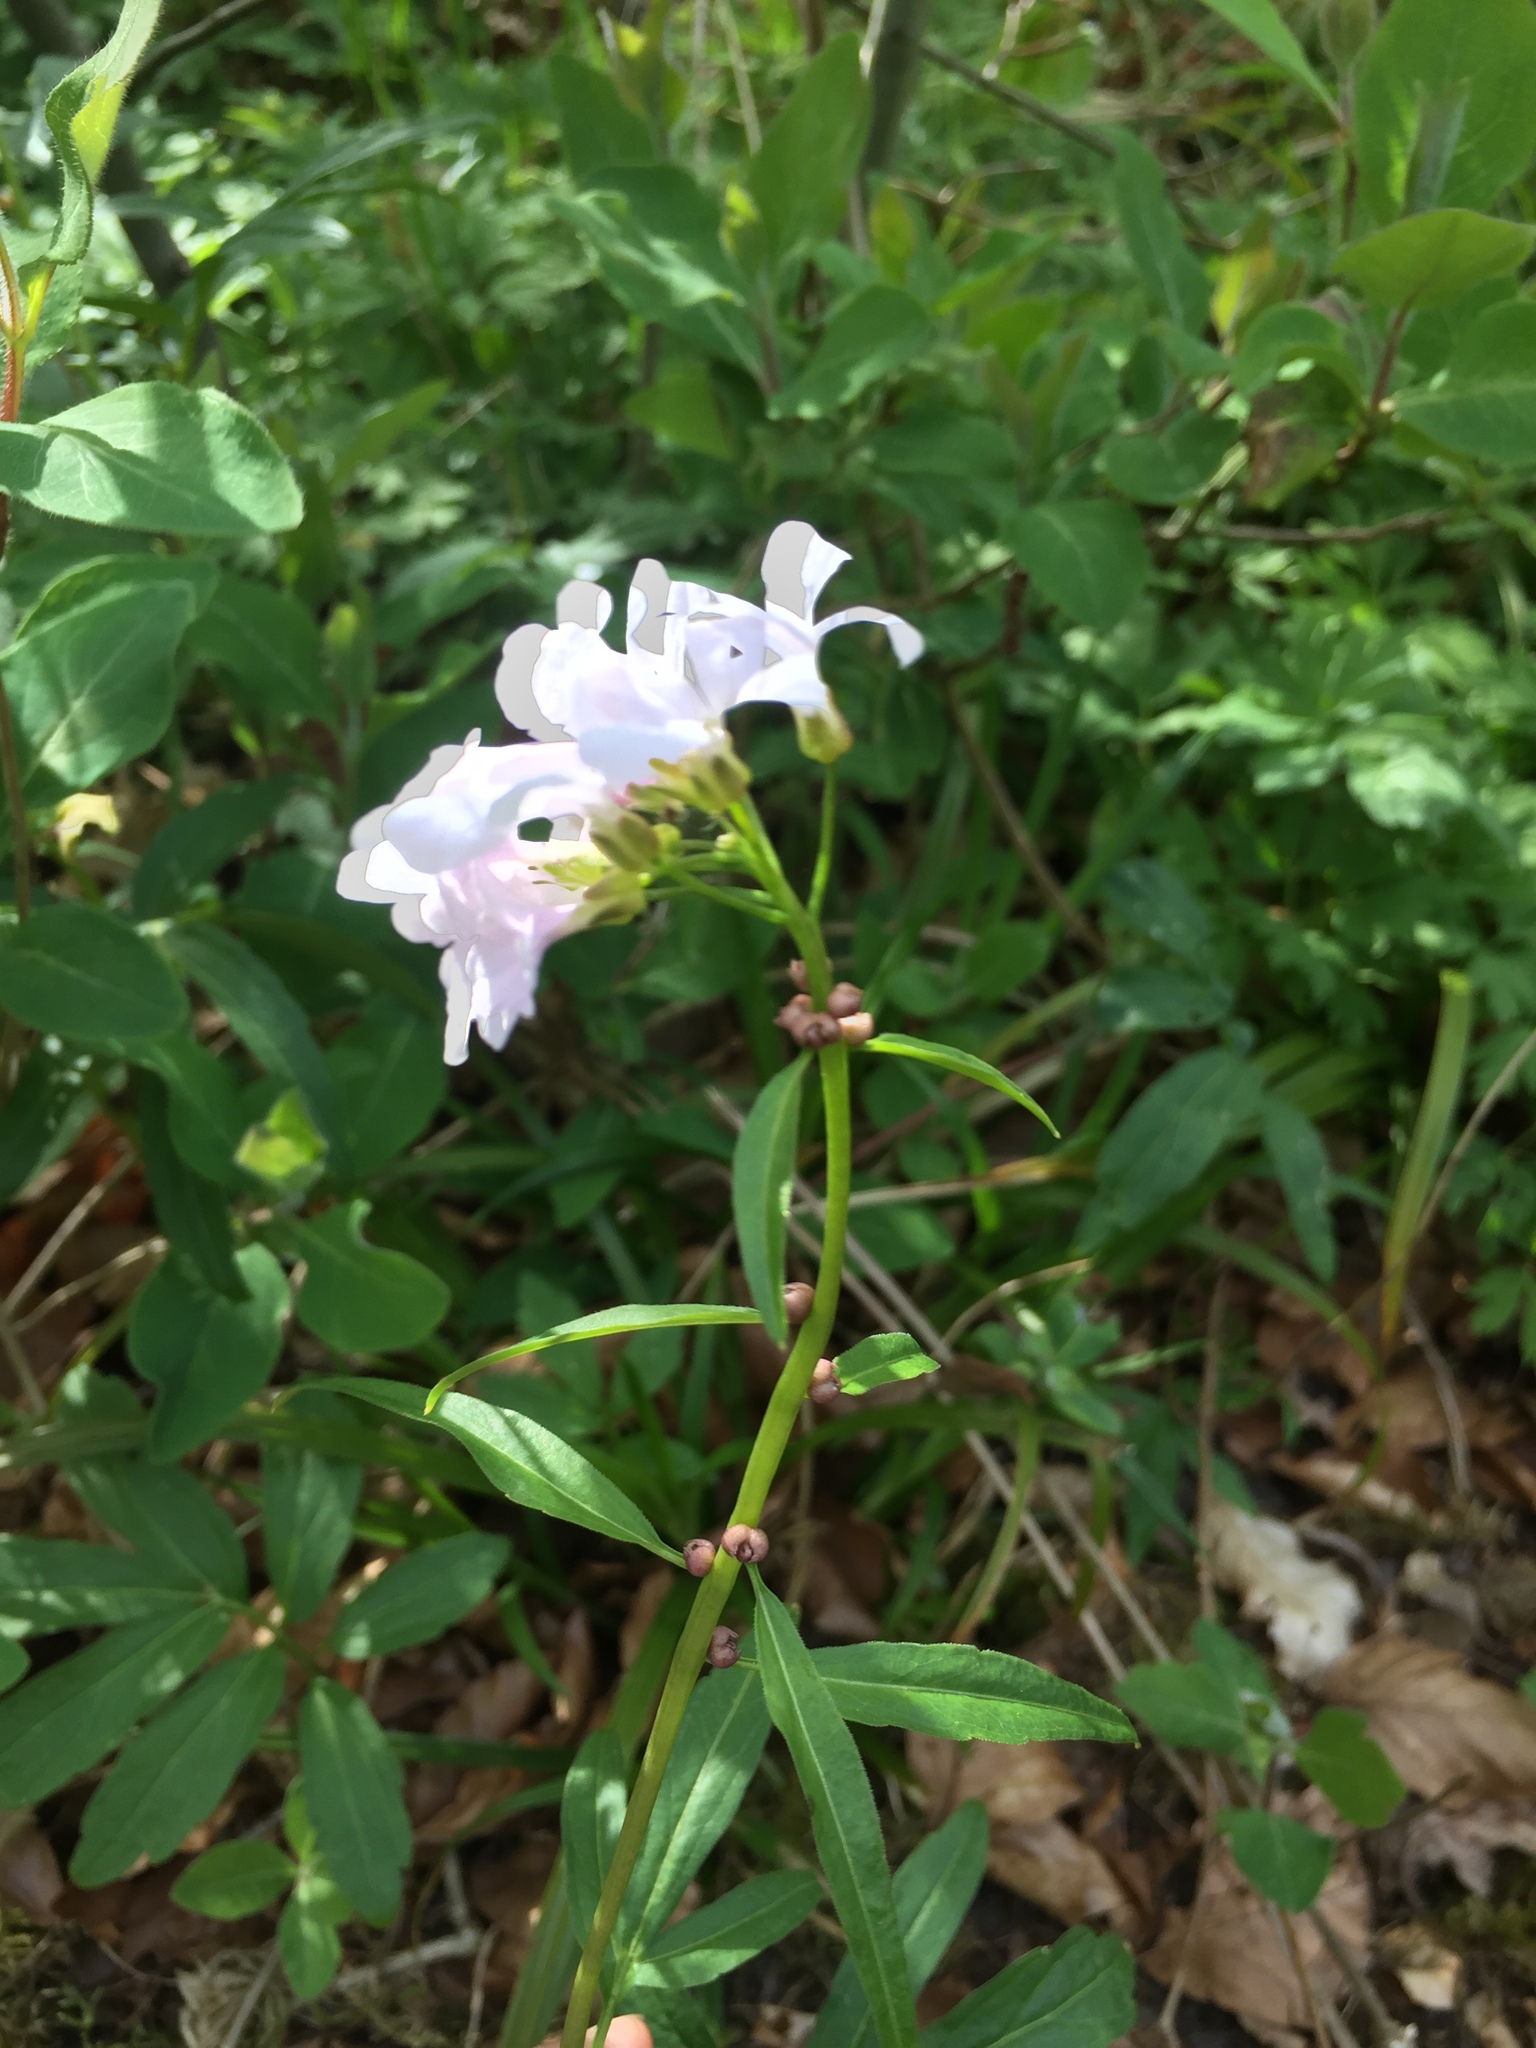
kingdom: Plantae
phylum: Tracheophyta
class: Magnoliopsida
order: Brassicales
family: Brassicaceae
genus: Cardamine
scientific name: Cardamine bulbifera
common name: Coralroot bittercress
